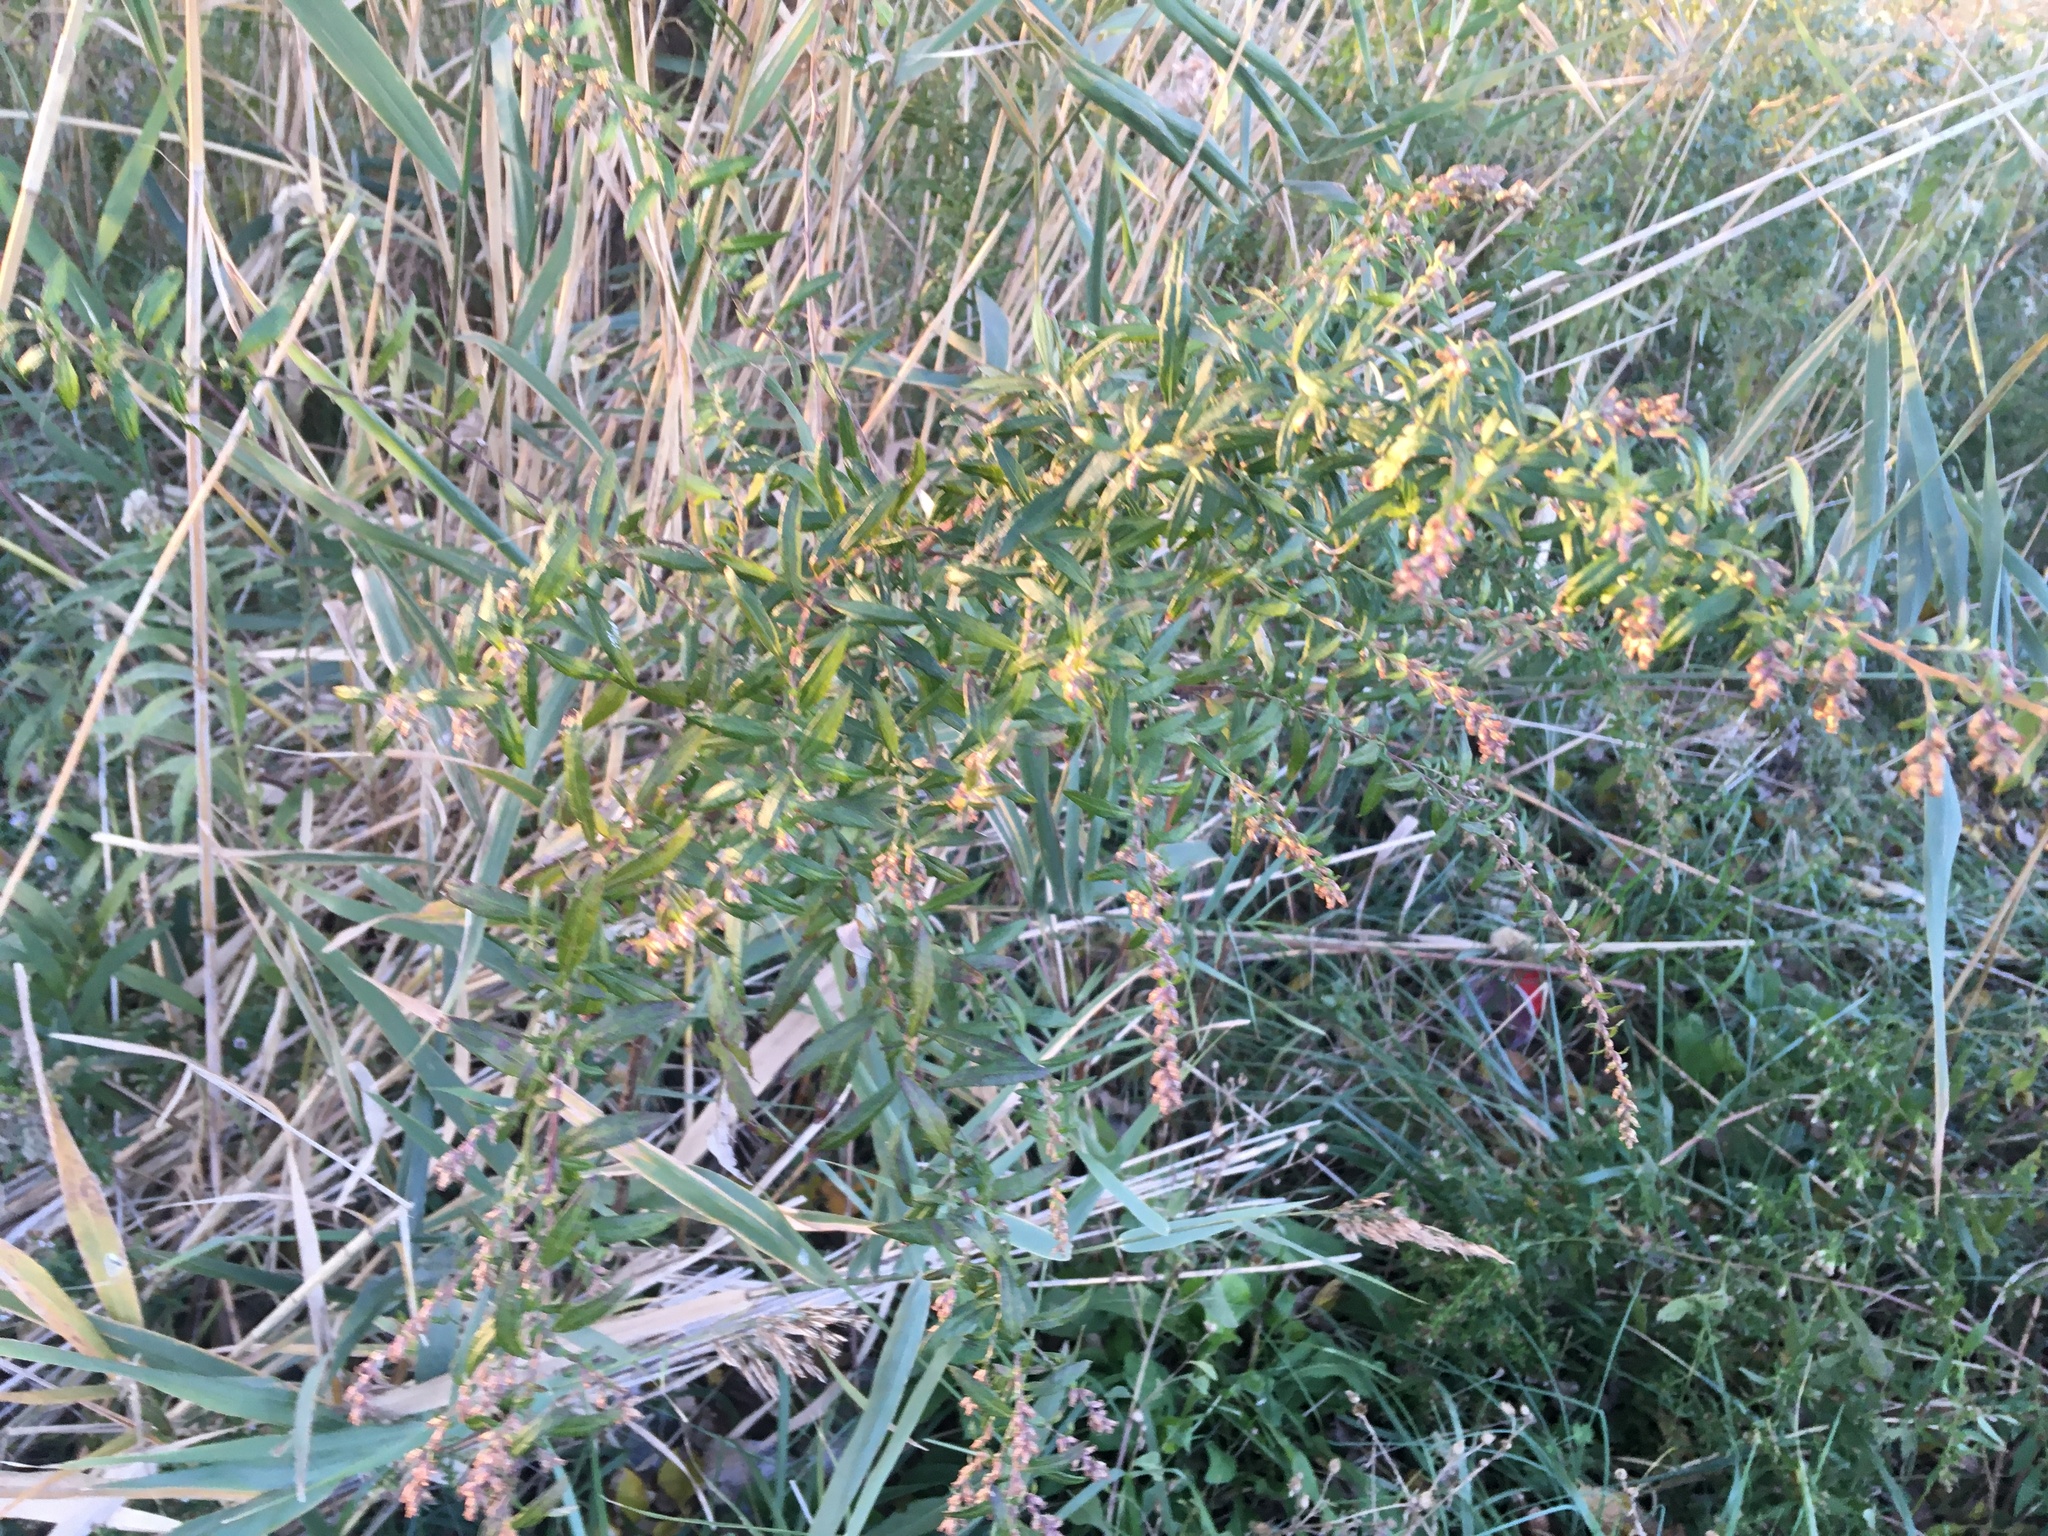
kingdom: Plantae
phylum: Tracheophyta
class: Magnoliopsida
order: Asterales
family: Asteraceae
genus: Artemisia
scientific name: Artemisia vulgaris
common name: Mugwort
